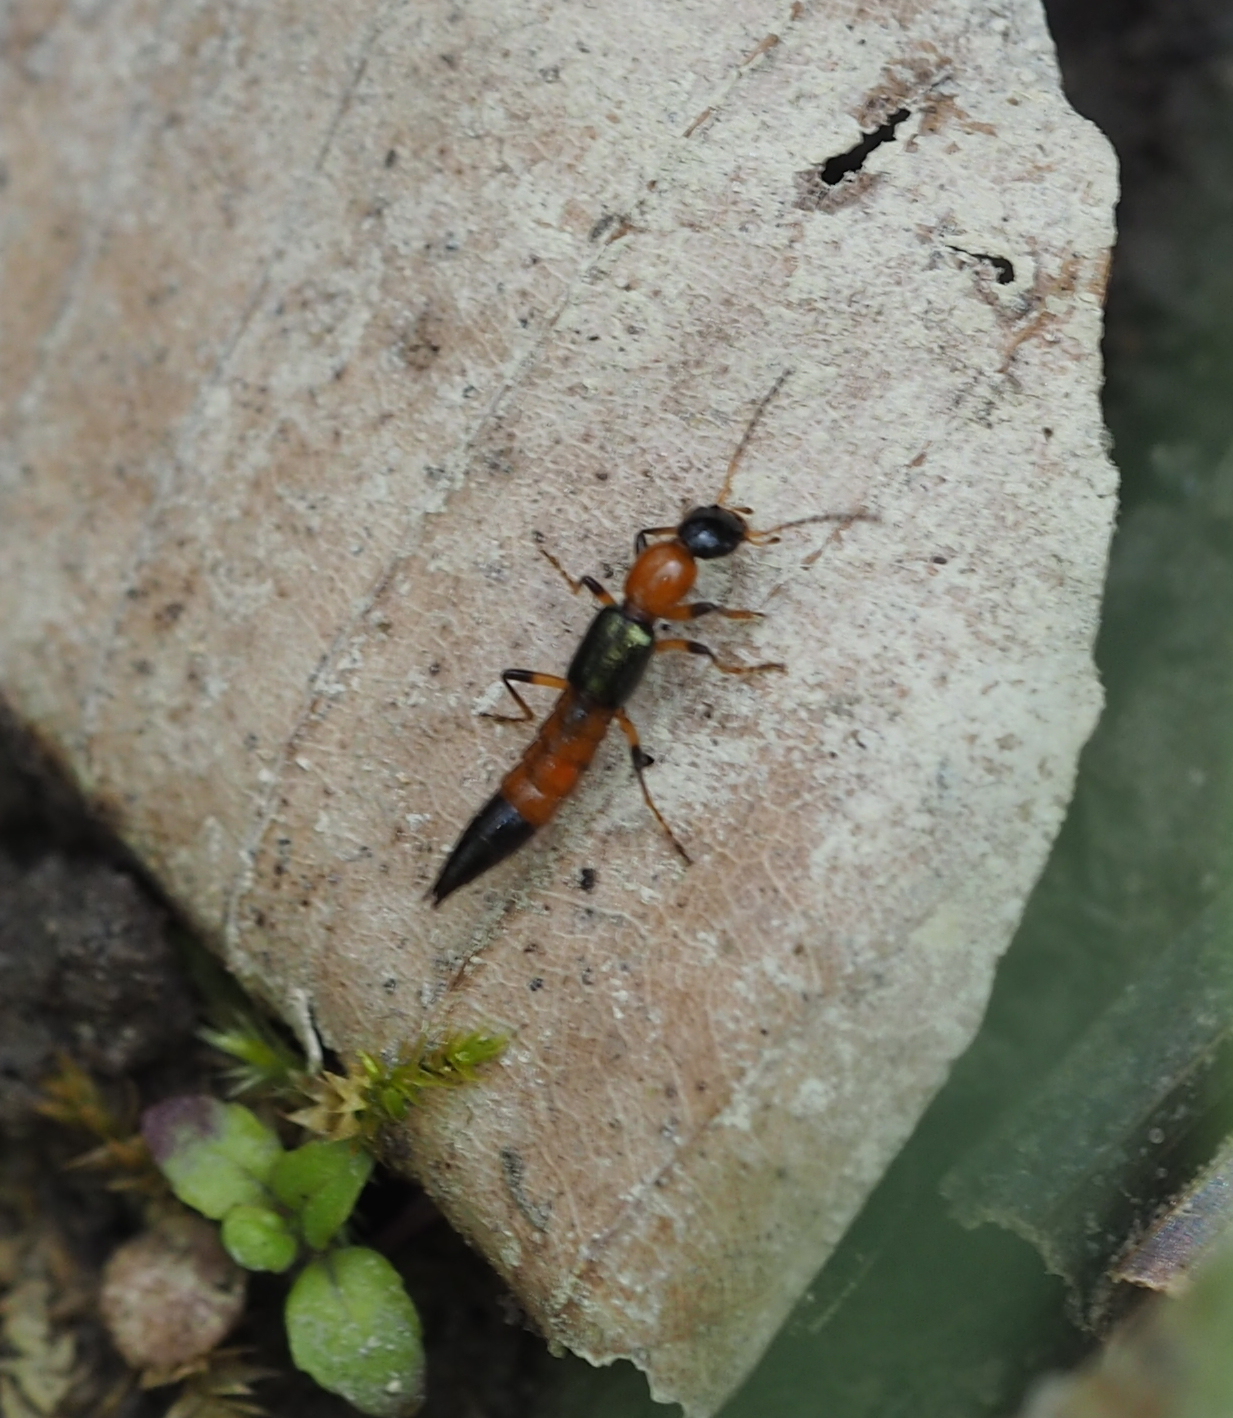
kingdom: Animalia
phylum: Arthropoda
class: Insecta
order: Coleoptera
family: Staphylinidae
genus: Paederus
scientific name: Paederus fuscipes
